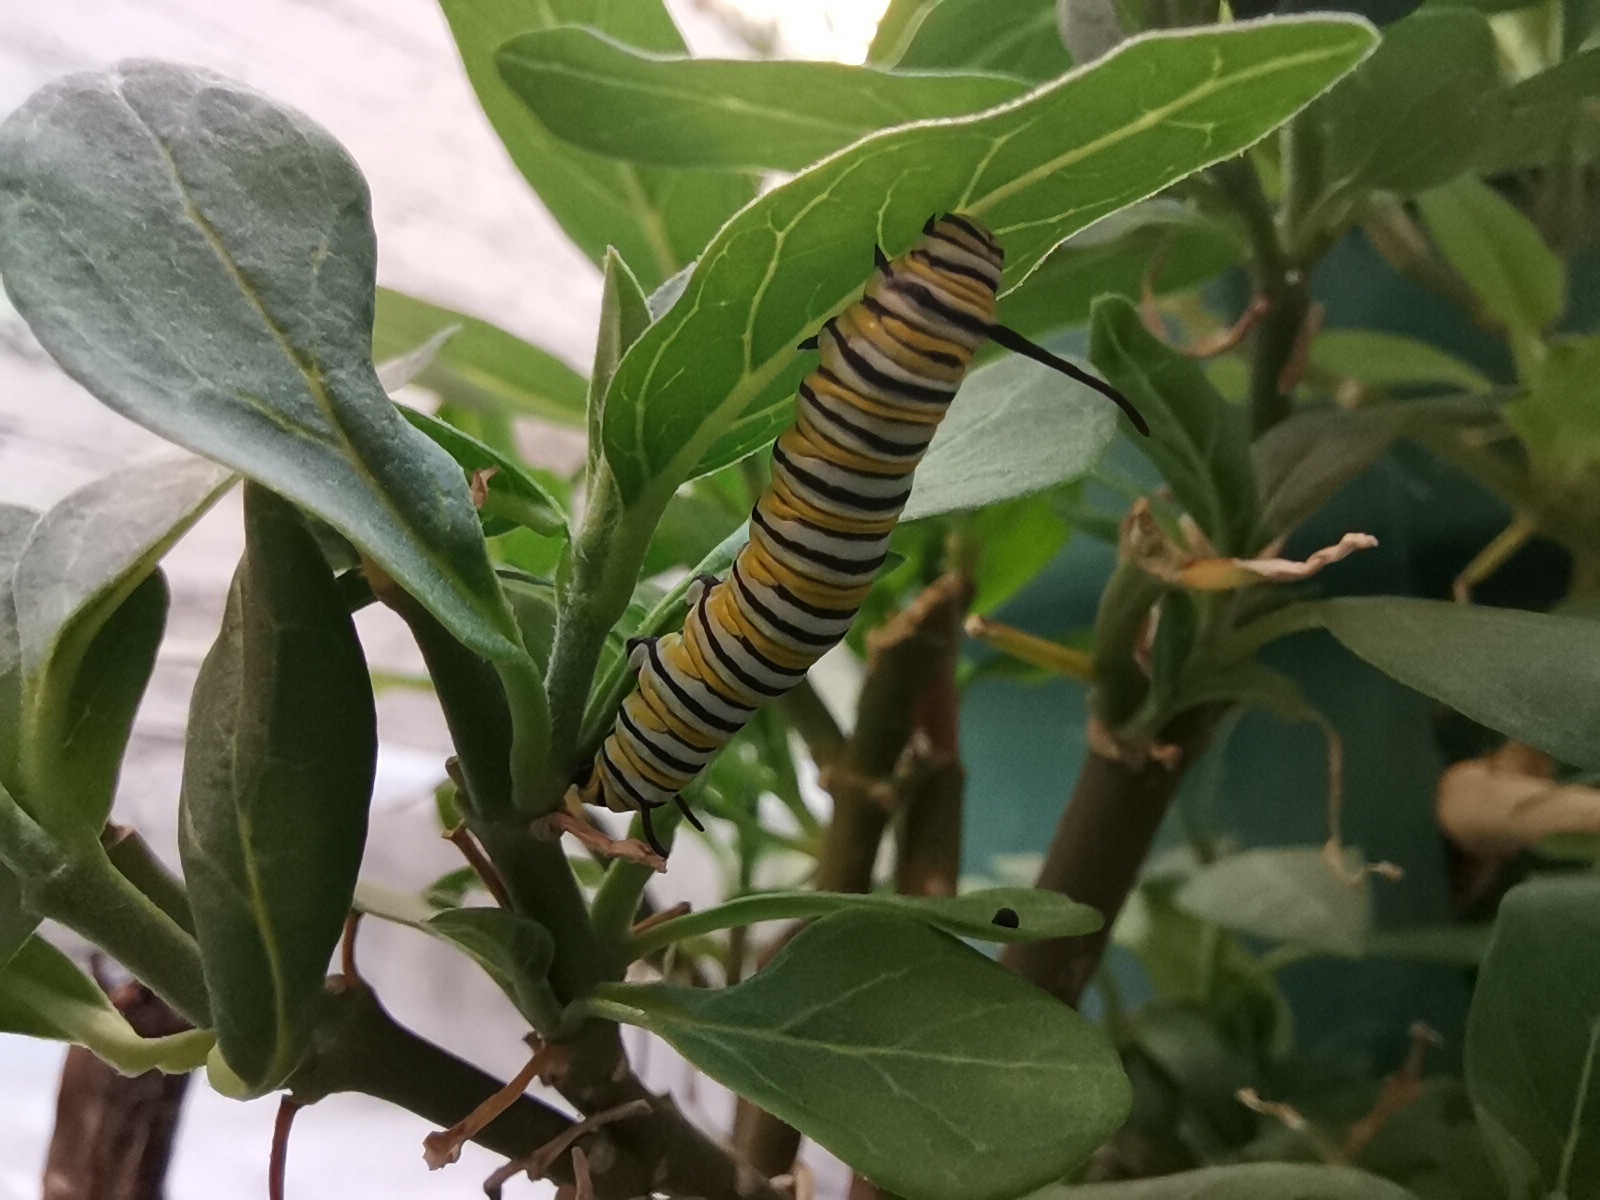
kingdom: Animalia
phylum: Arthropoda
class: Insecta
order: Lepidoptera
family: Nymphalidae
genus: Danaus
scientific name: Danaus plexippus
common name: Monarch
